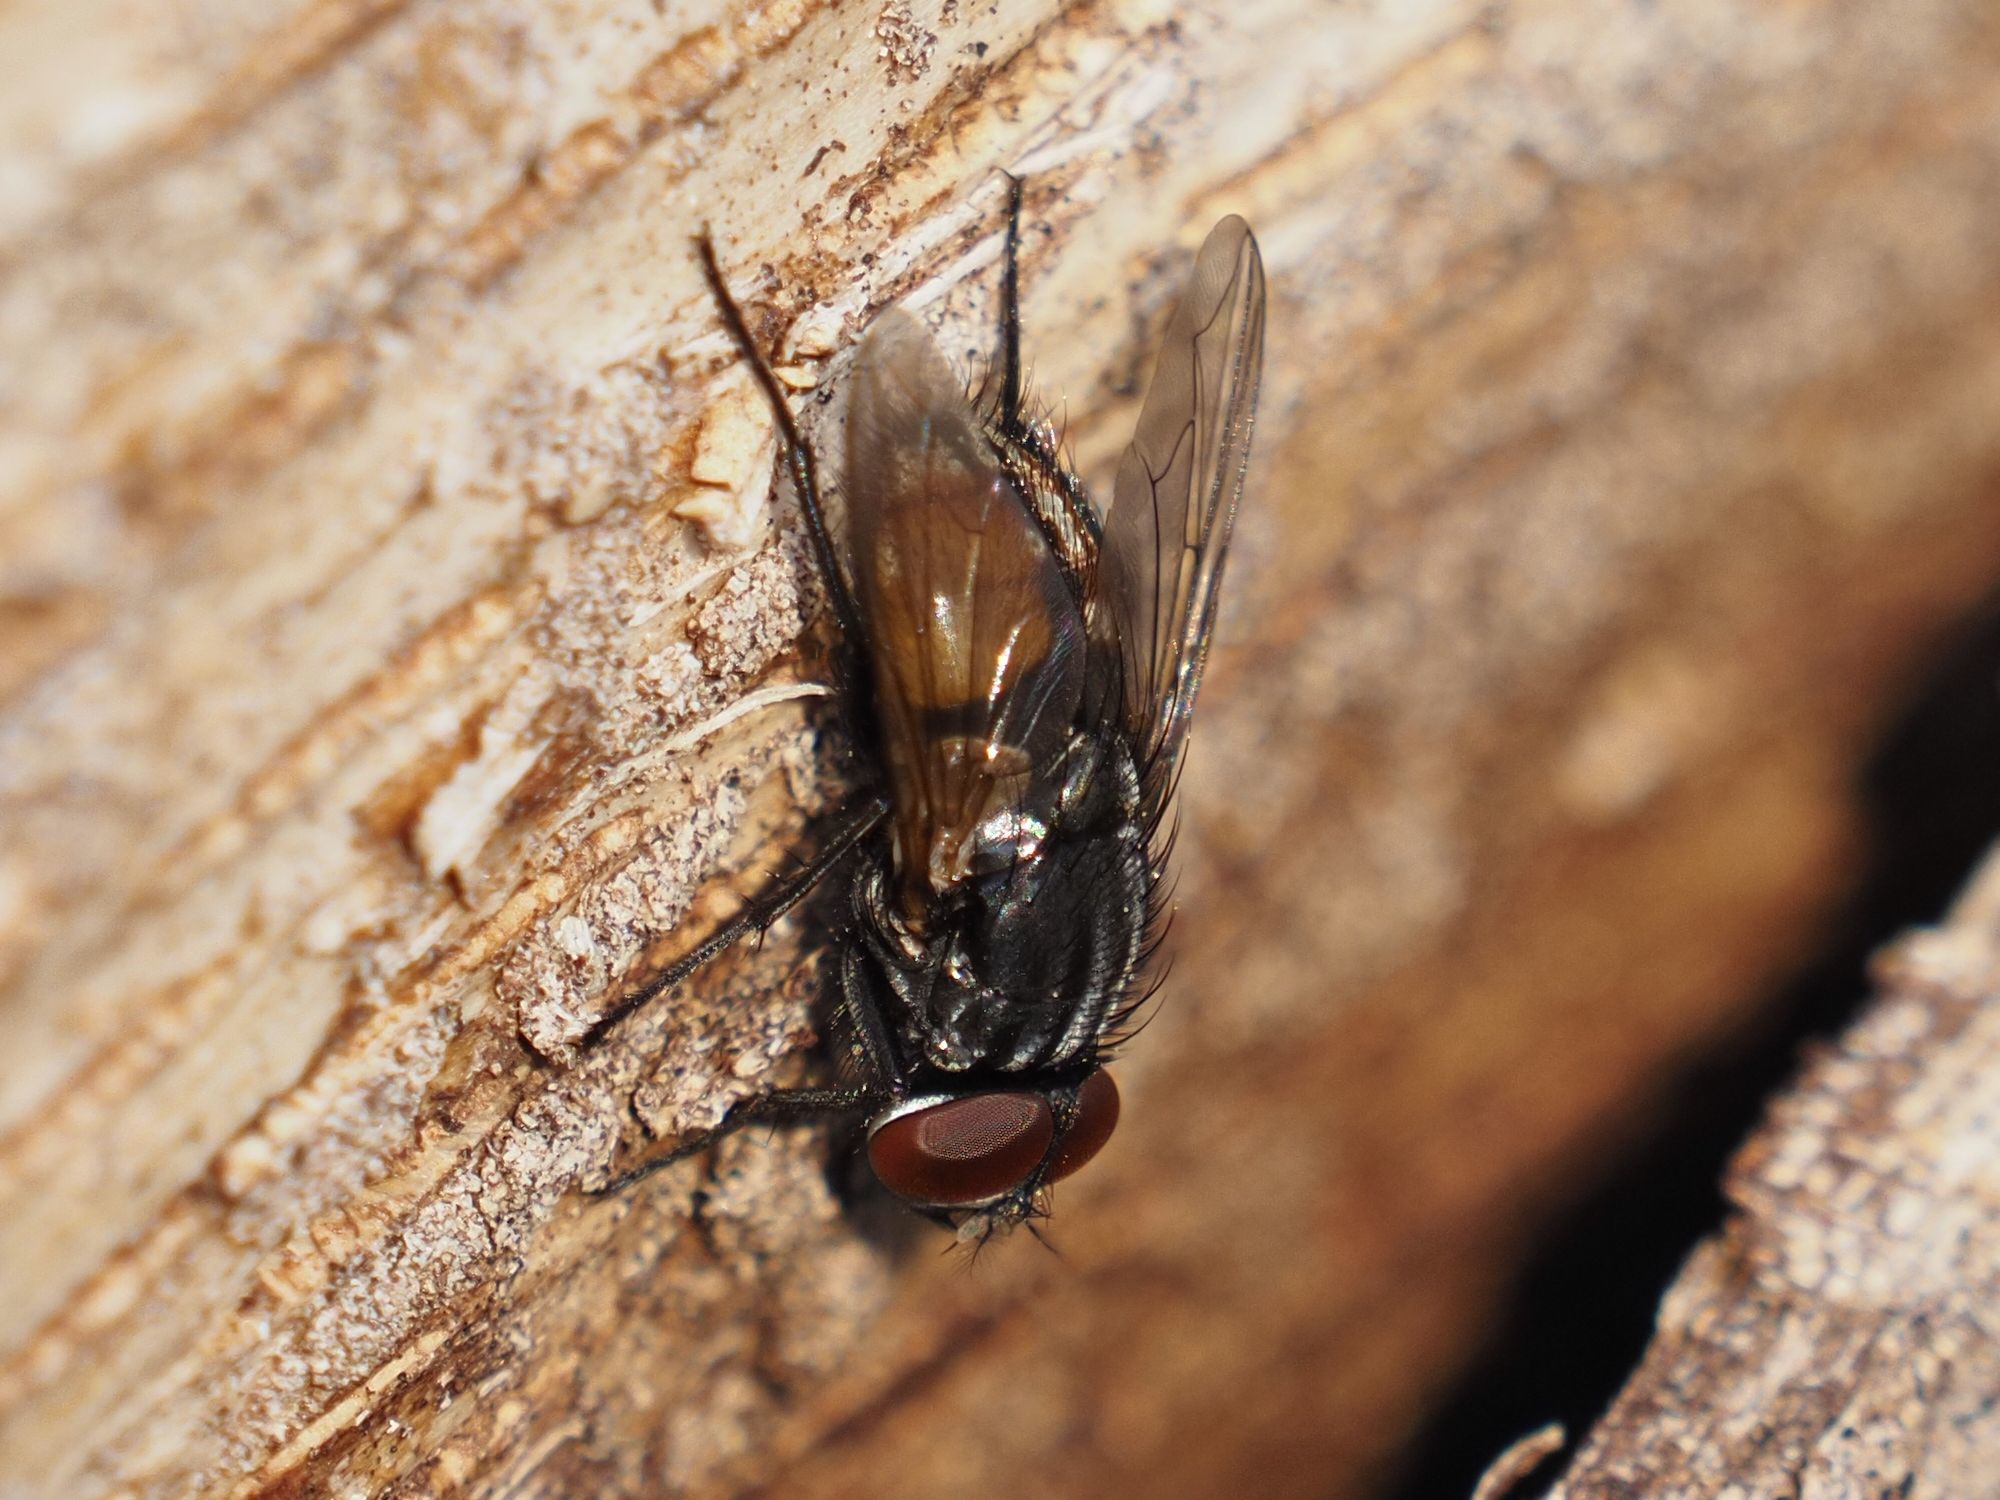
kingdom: Animalia
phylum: Arthropoda
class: Insecta
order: Diptera
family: Muscidae
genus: Musca
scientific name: Musca autumnalis
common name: Face fly
